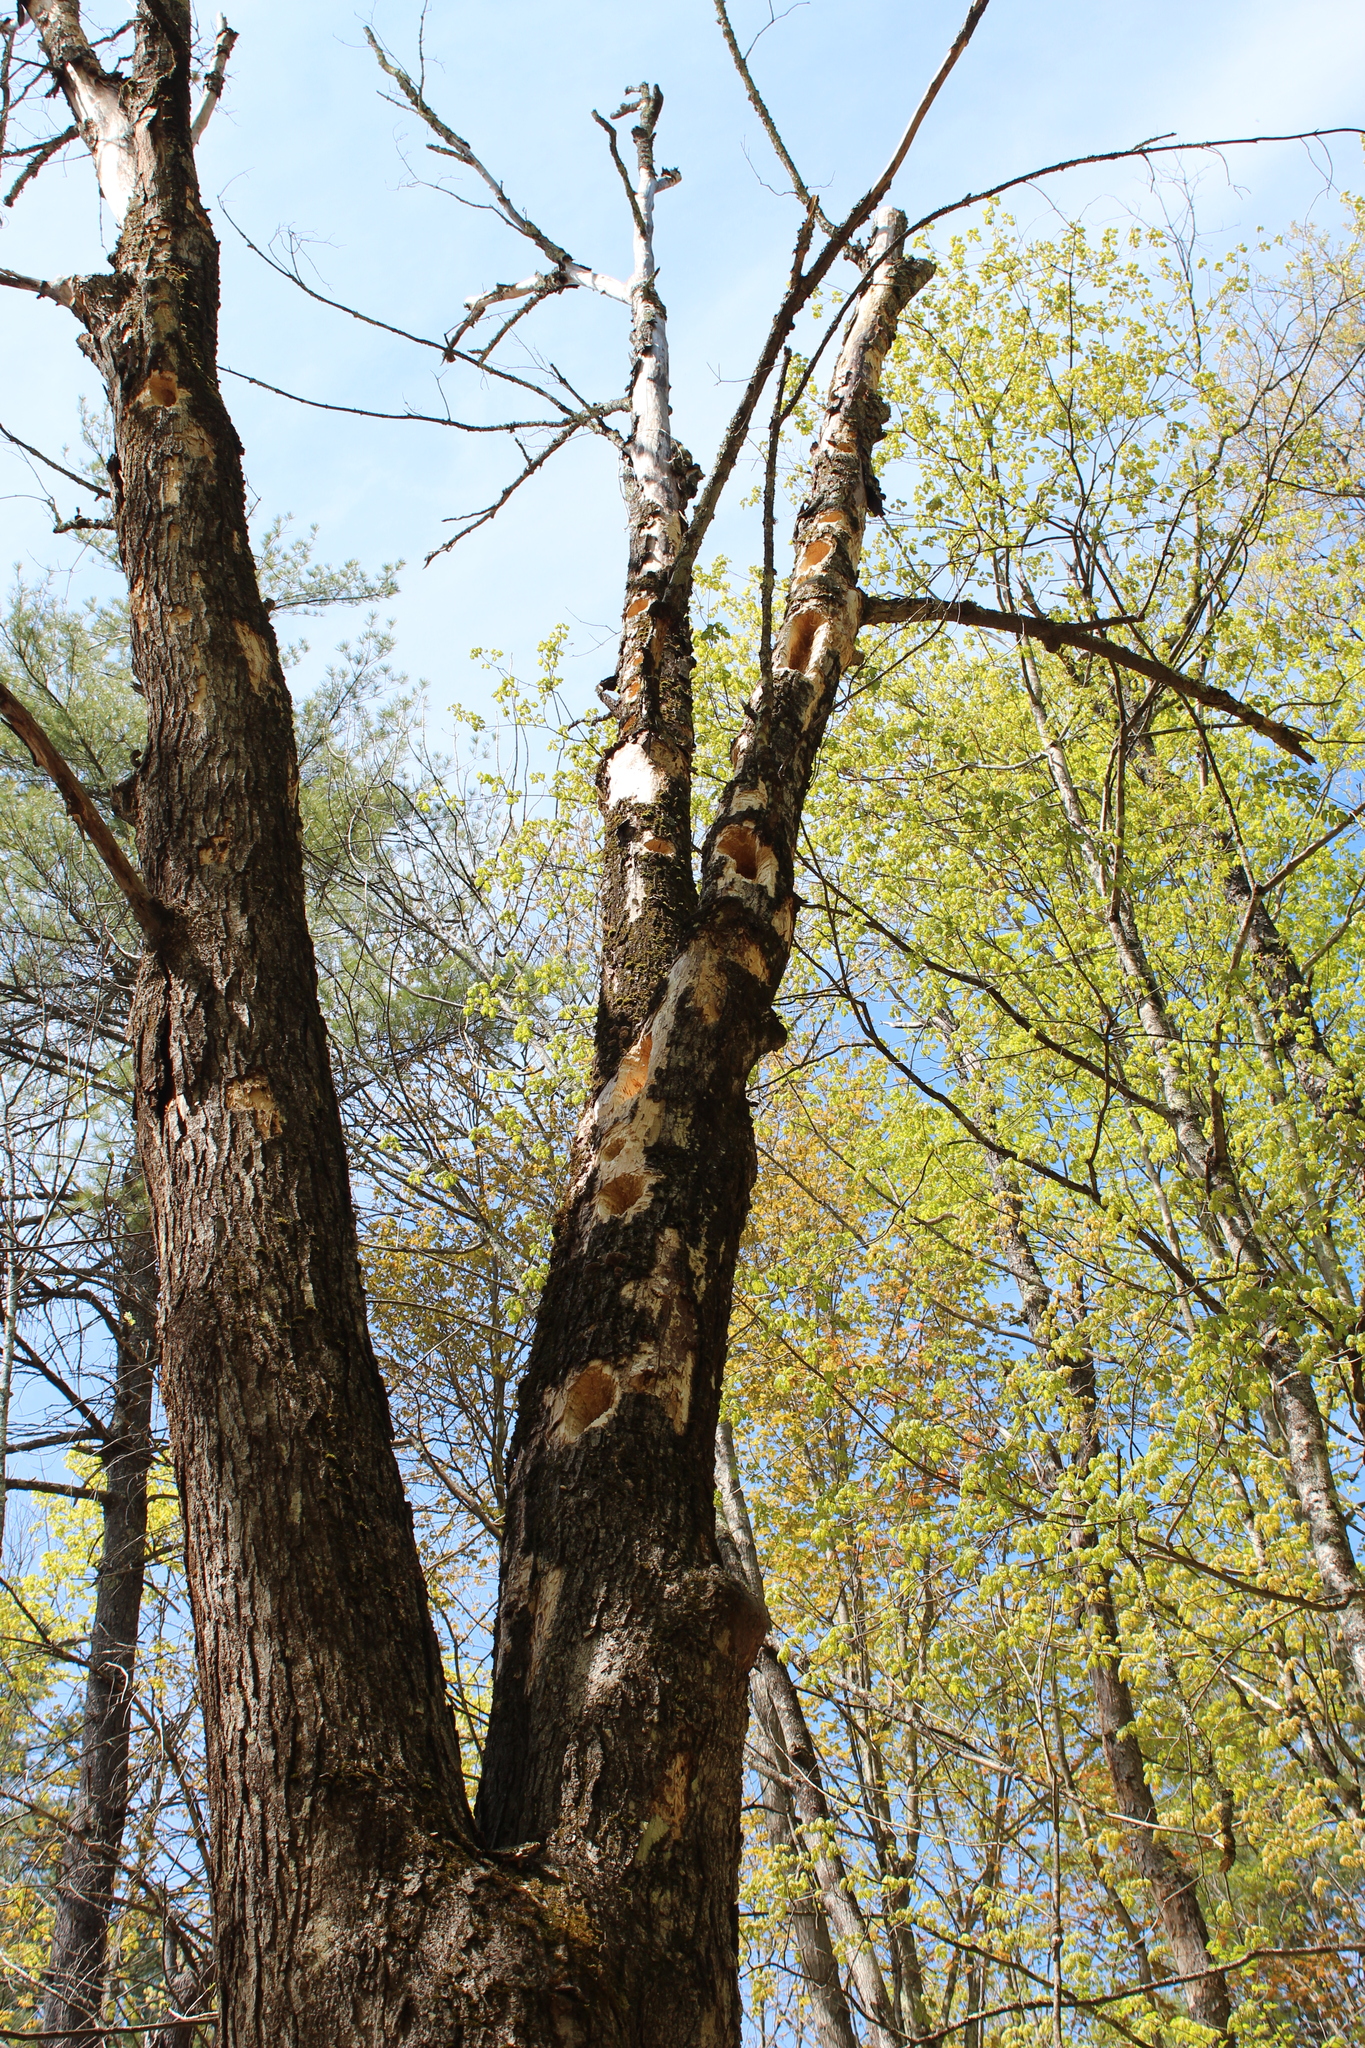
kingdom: Animalia
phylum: Chordata
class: Aves
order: Piciformes
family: Picidae
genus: Dryocopus
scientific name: Dryocopus pileatus
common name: Pileated woodpecker
